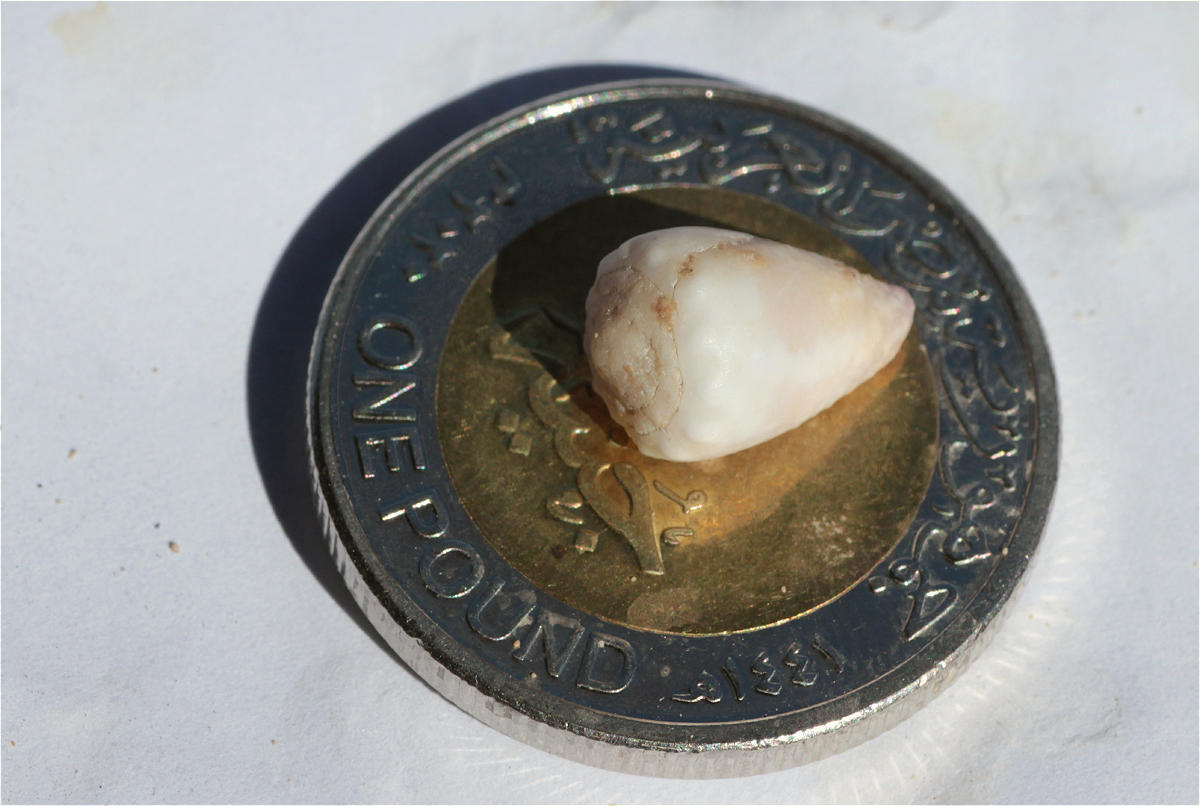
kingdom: Animalia
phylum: Mollusca
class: Gastropoda
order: Neogastropoda
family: Conidae
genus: Conus
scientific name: Conus parvatus
